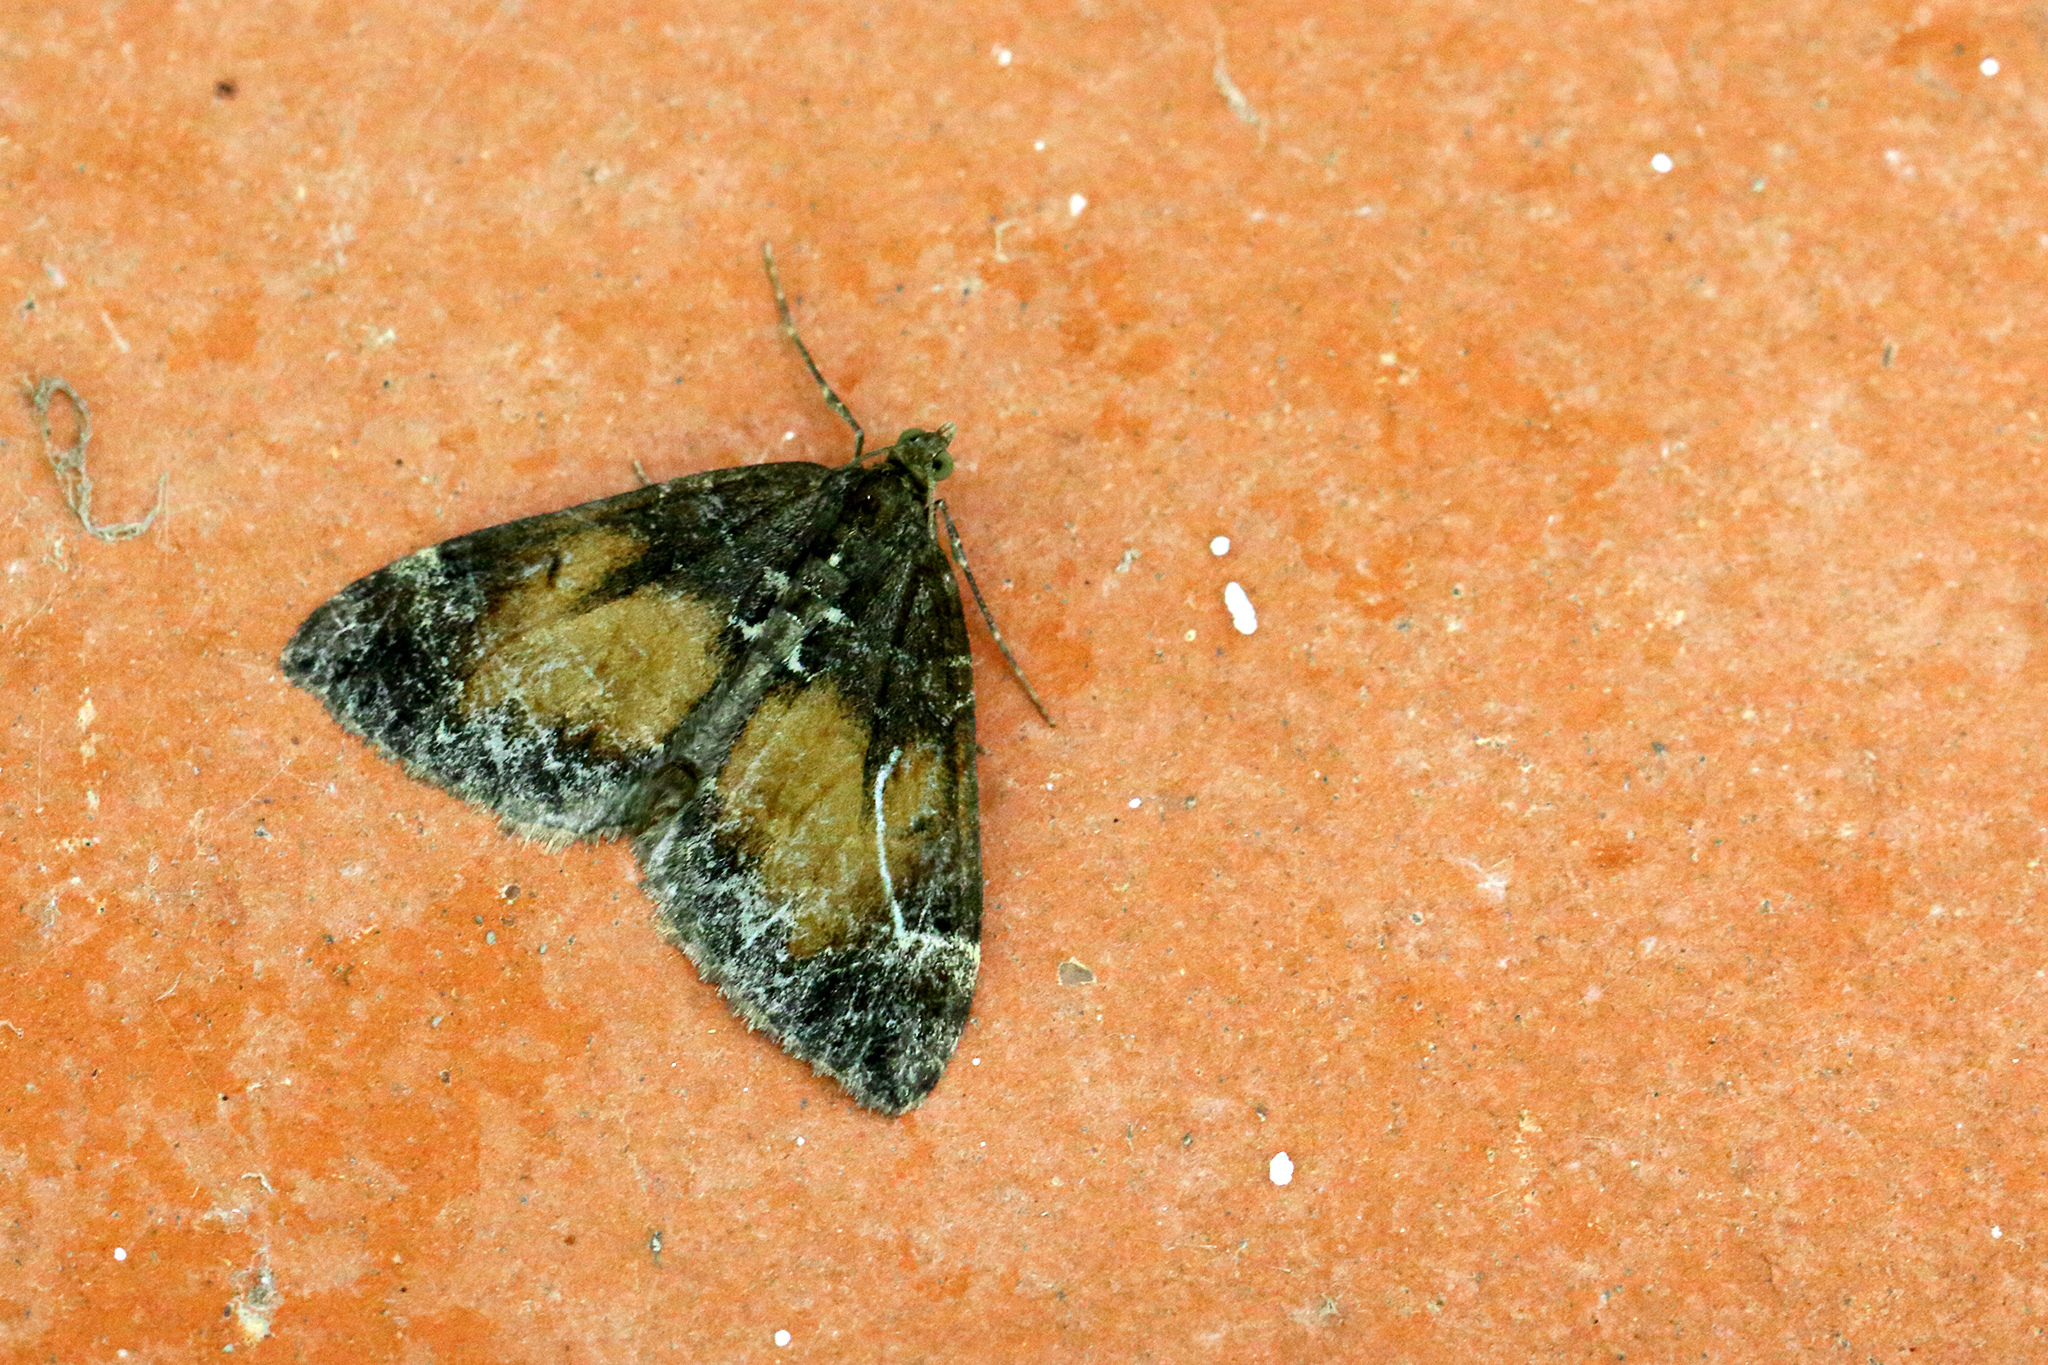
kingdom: Animalia
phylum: Arthropoda
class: Insecta
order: Lepidoptera
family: Geometridae
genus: Dysstroma
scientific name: Dysstroma truncata
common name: Common marbled carpet
